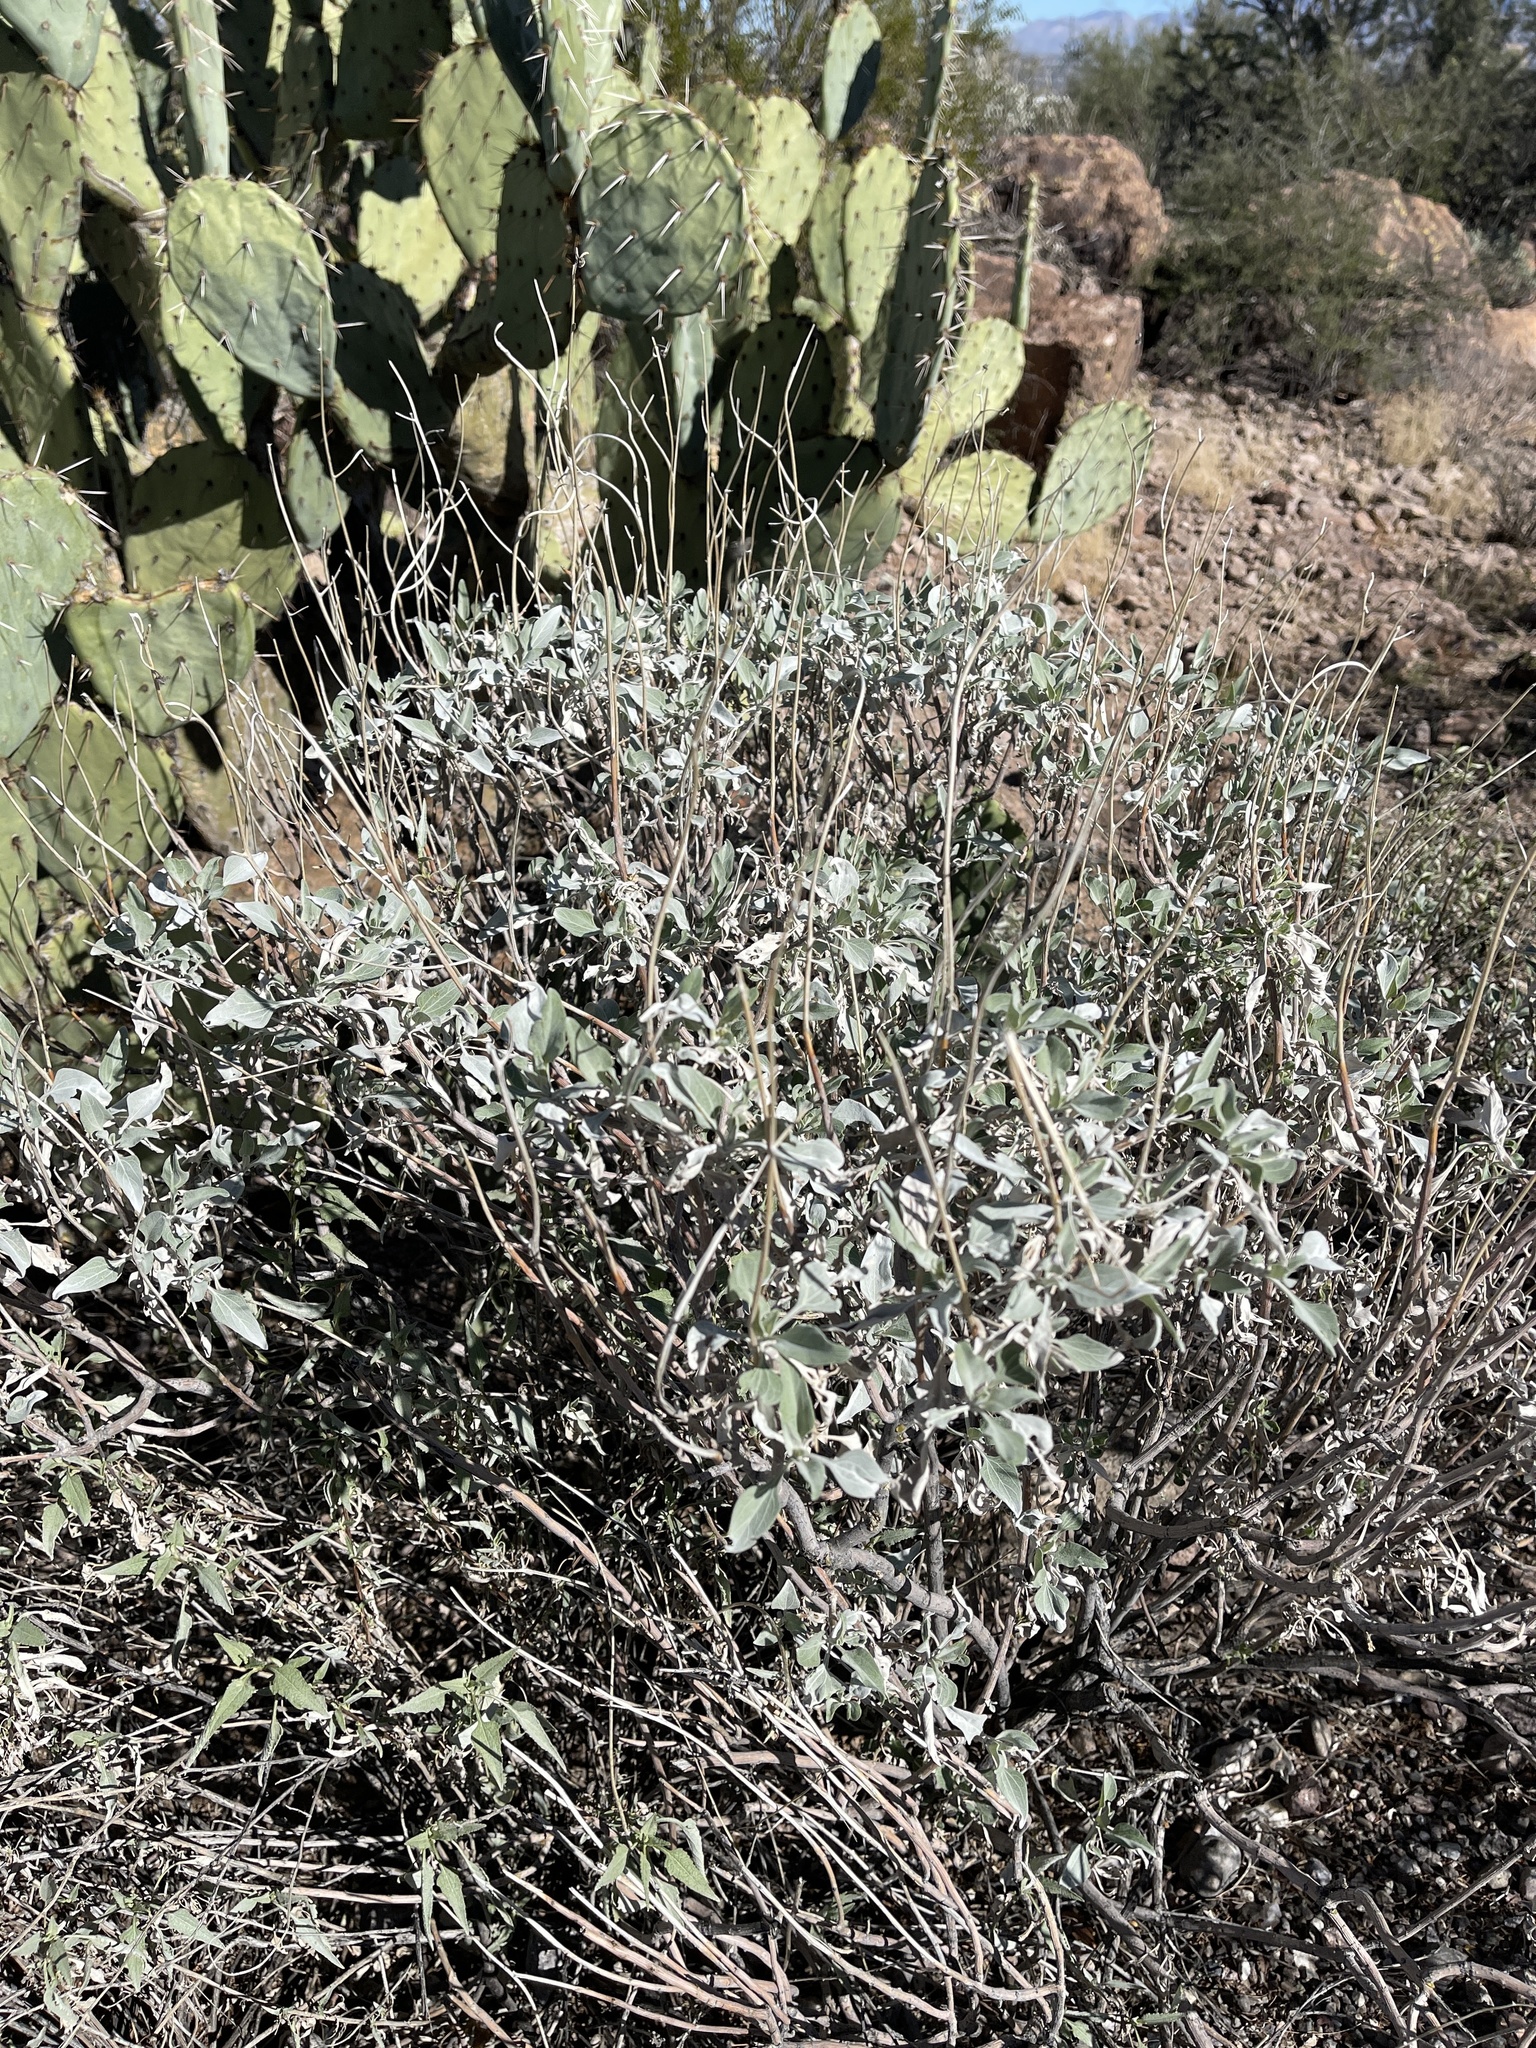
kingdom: Plantae
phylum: Tracheophyta
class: Magnoliopsida
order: Asterales
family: Asteraceae
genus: Encelia
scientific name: Encelia farinosa
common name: Brittlebush
